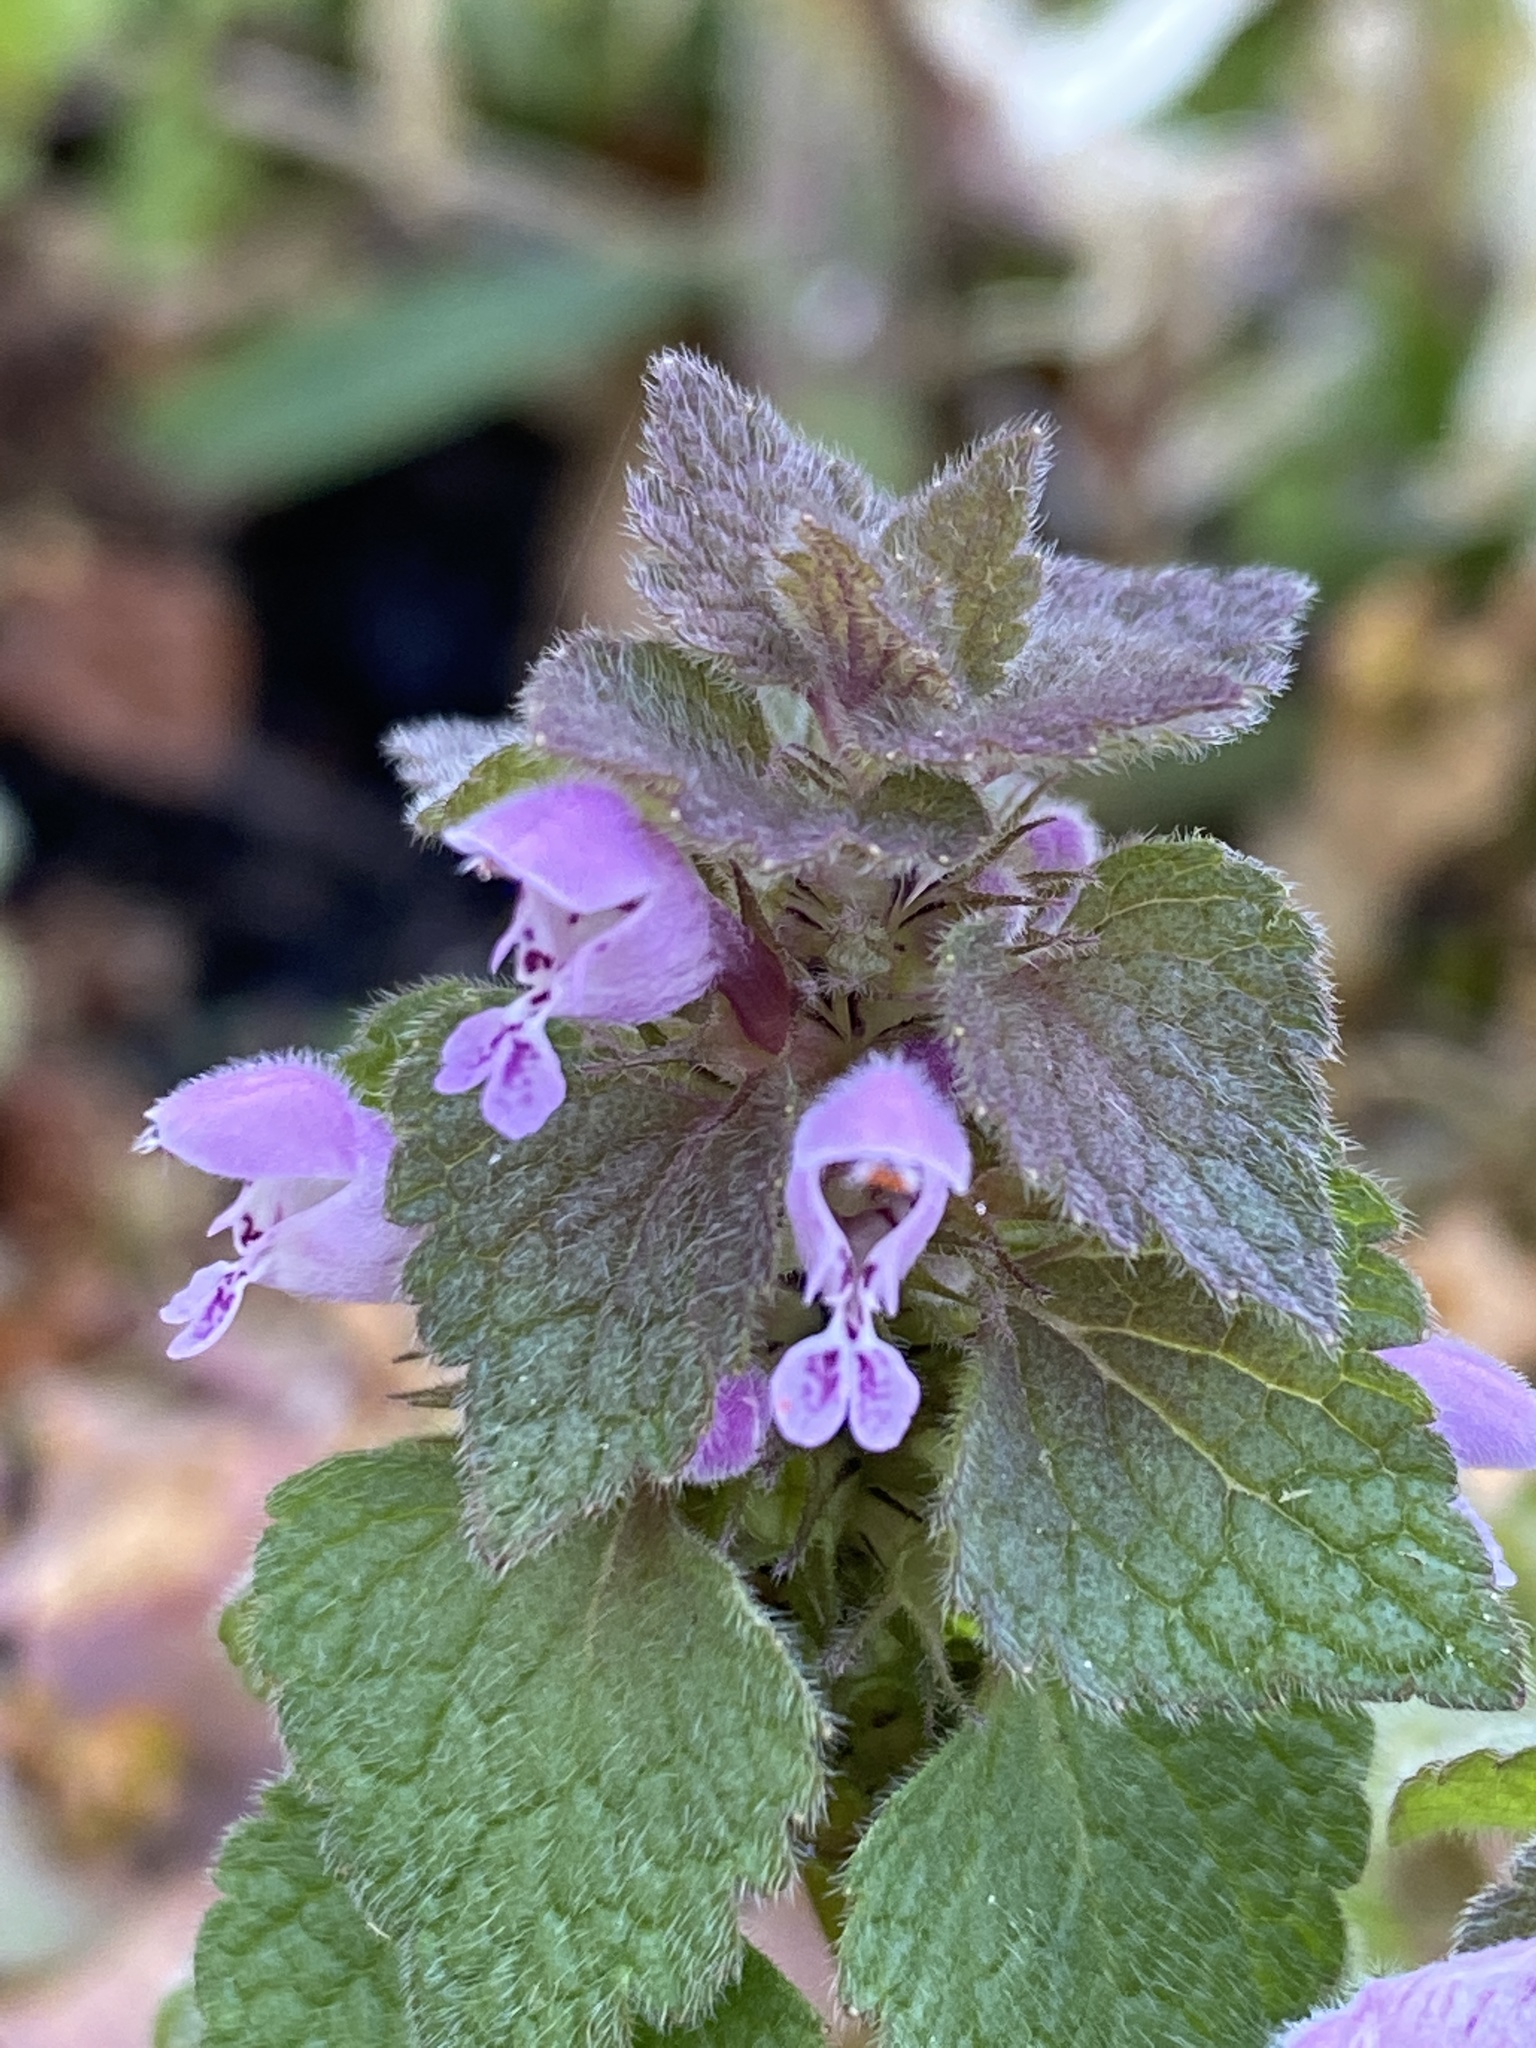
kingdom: Plantae
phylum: Tracheophyta
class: Magnoliopsida
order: Lamiales
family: Lamiaceae
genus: Lamium
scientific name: Lamium purpureum
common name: Red dead-nettle
